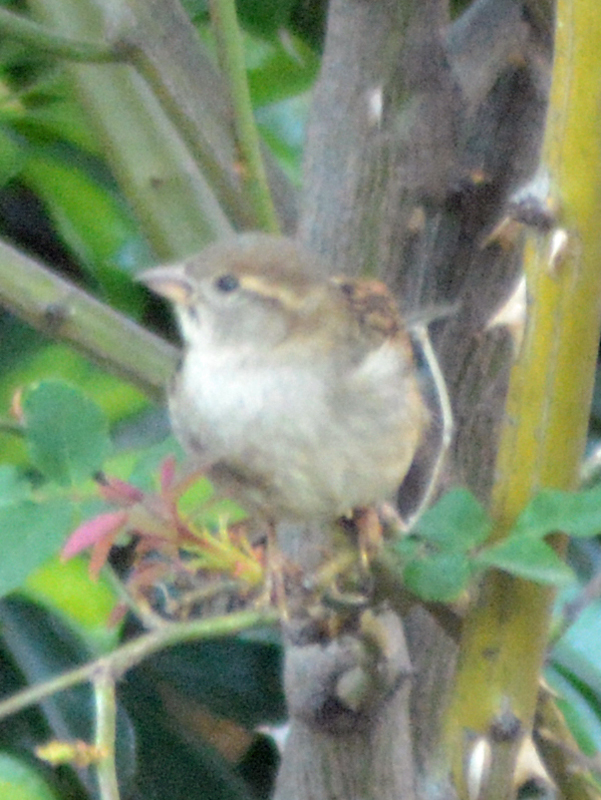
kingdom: Animalia
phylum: Chordata
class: Aves
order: Passeriformes
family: Passeridae
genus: Passer
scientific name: Passer domesticus
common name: House sparrow
